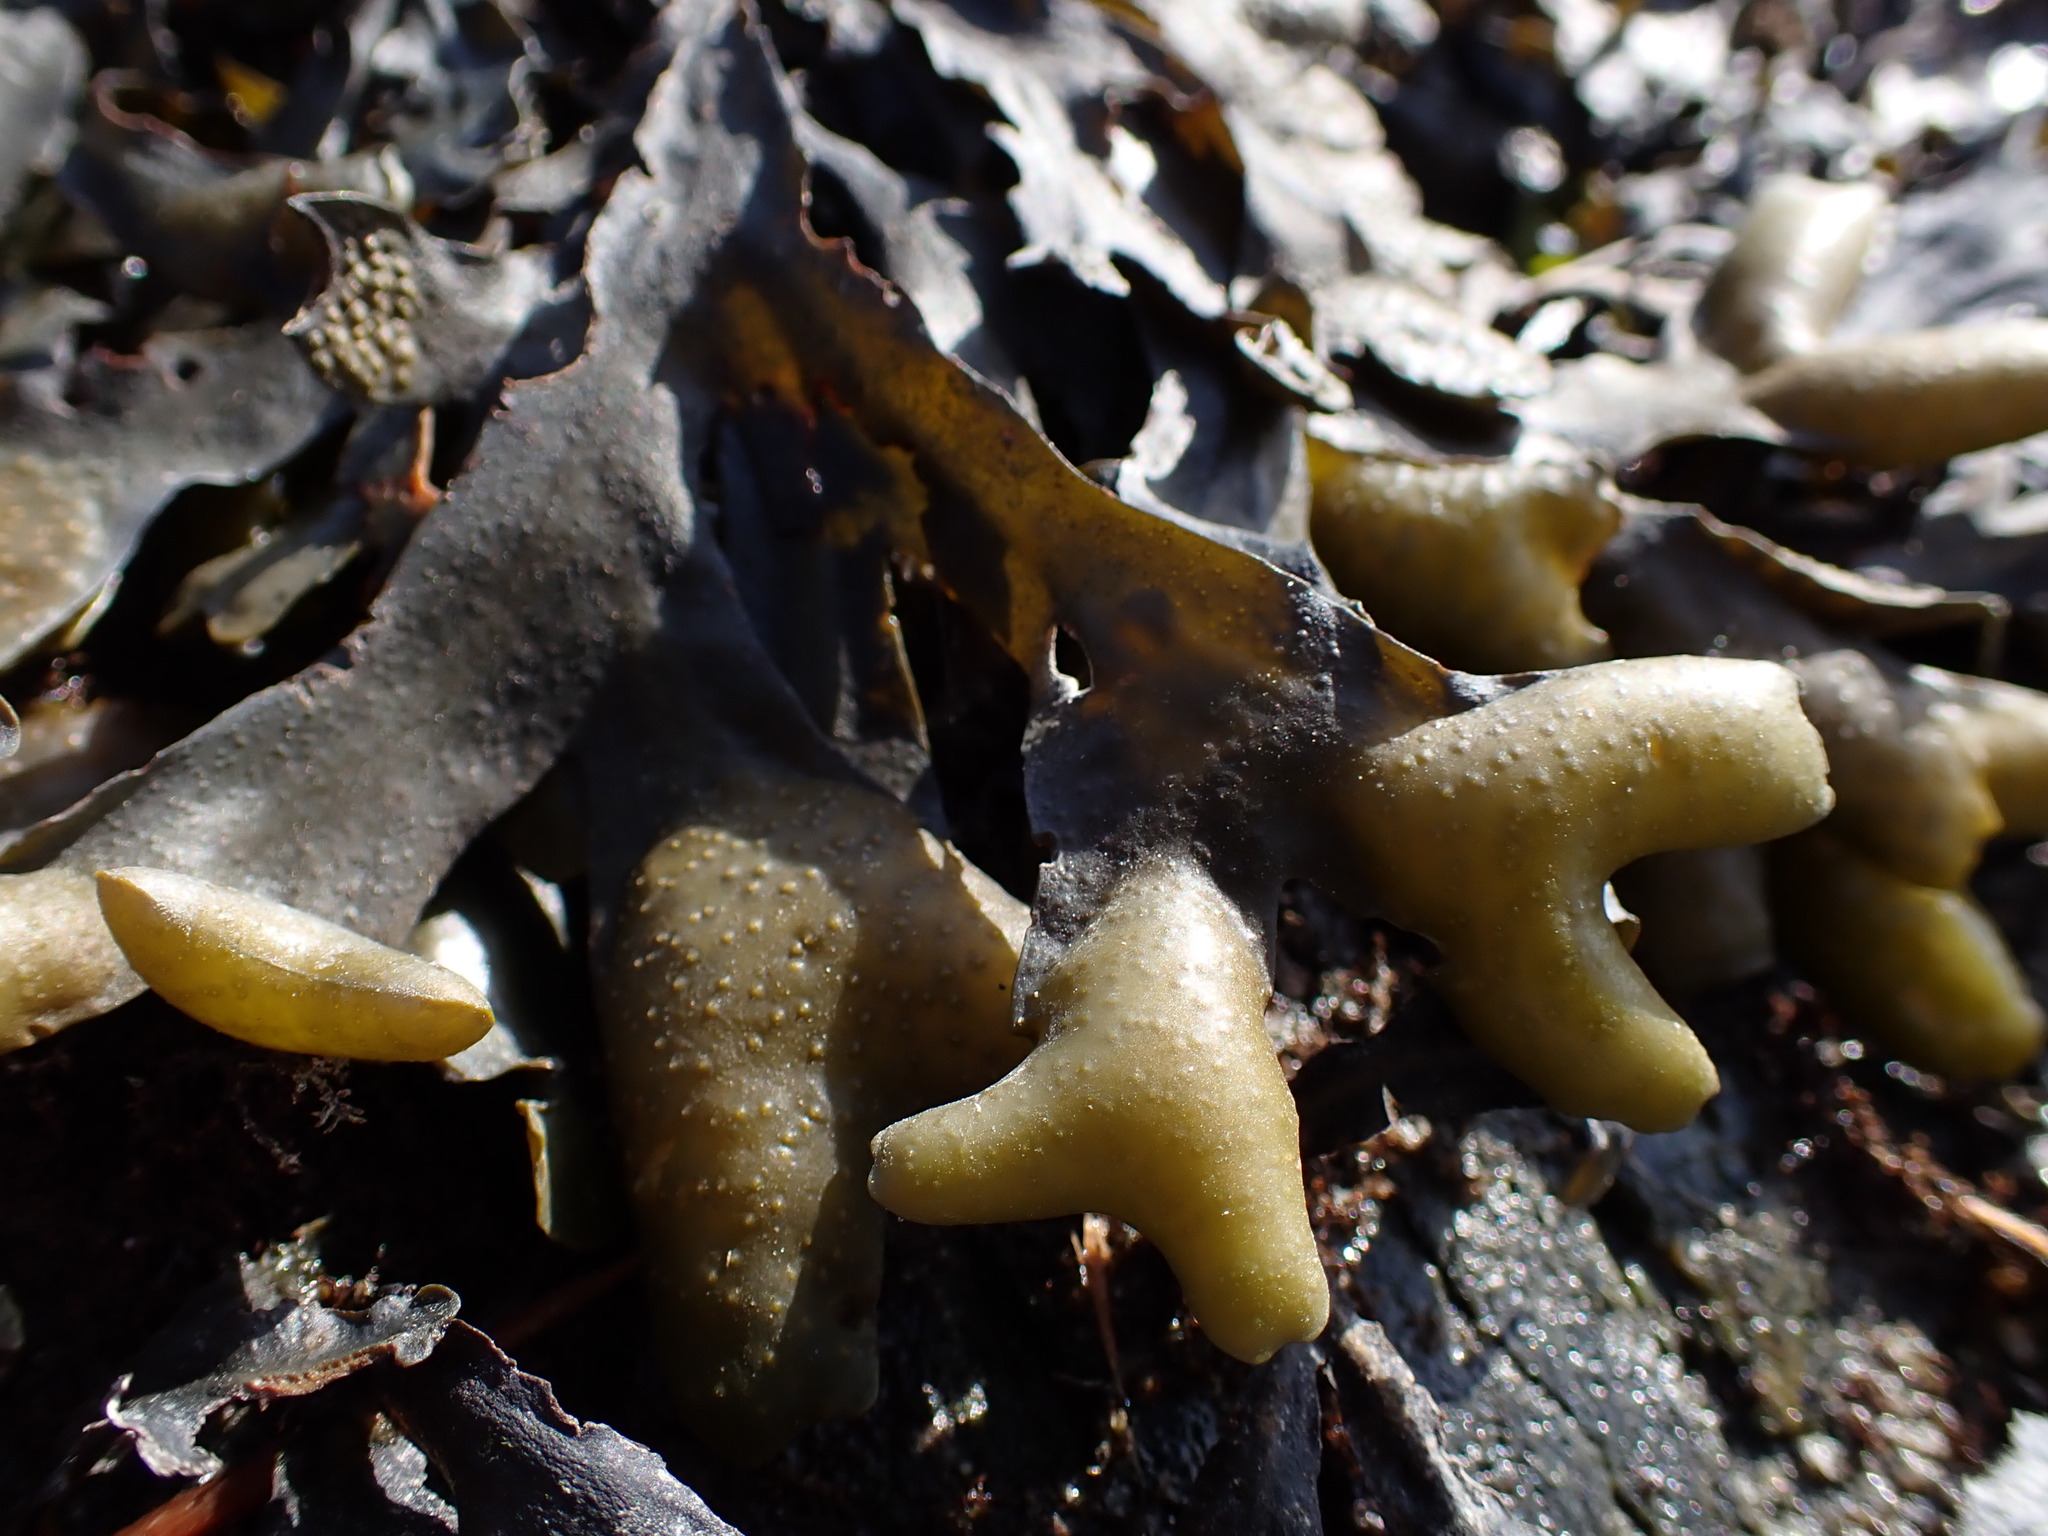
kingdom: Chromista
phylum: Ochrophyta
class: Phaeophyceae
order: Fucales
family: Fucaceae
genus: Fucus
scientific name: Fucus distichus
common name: Rockweed
